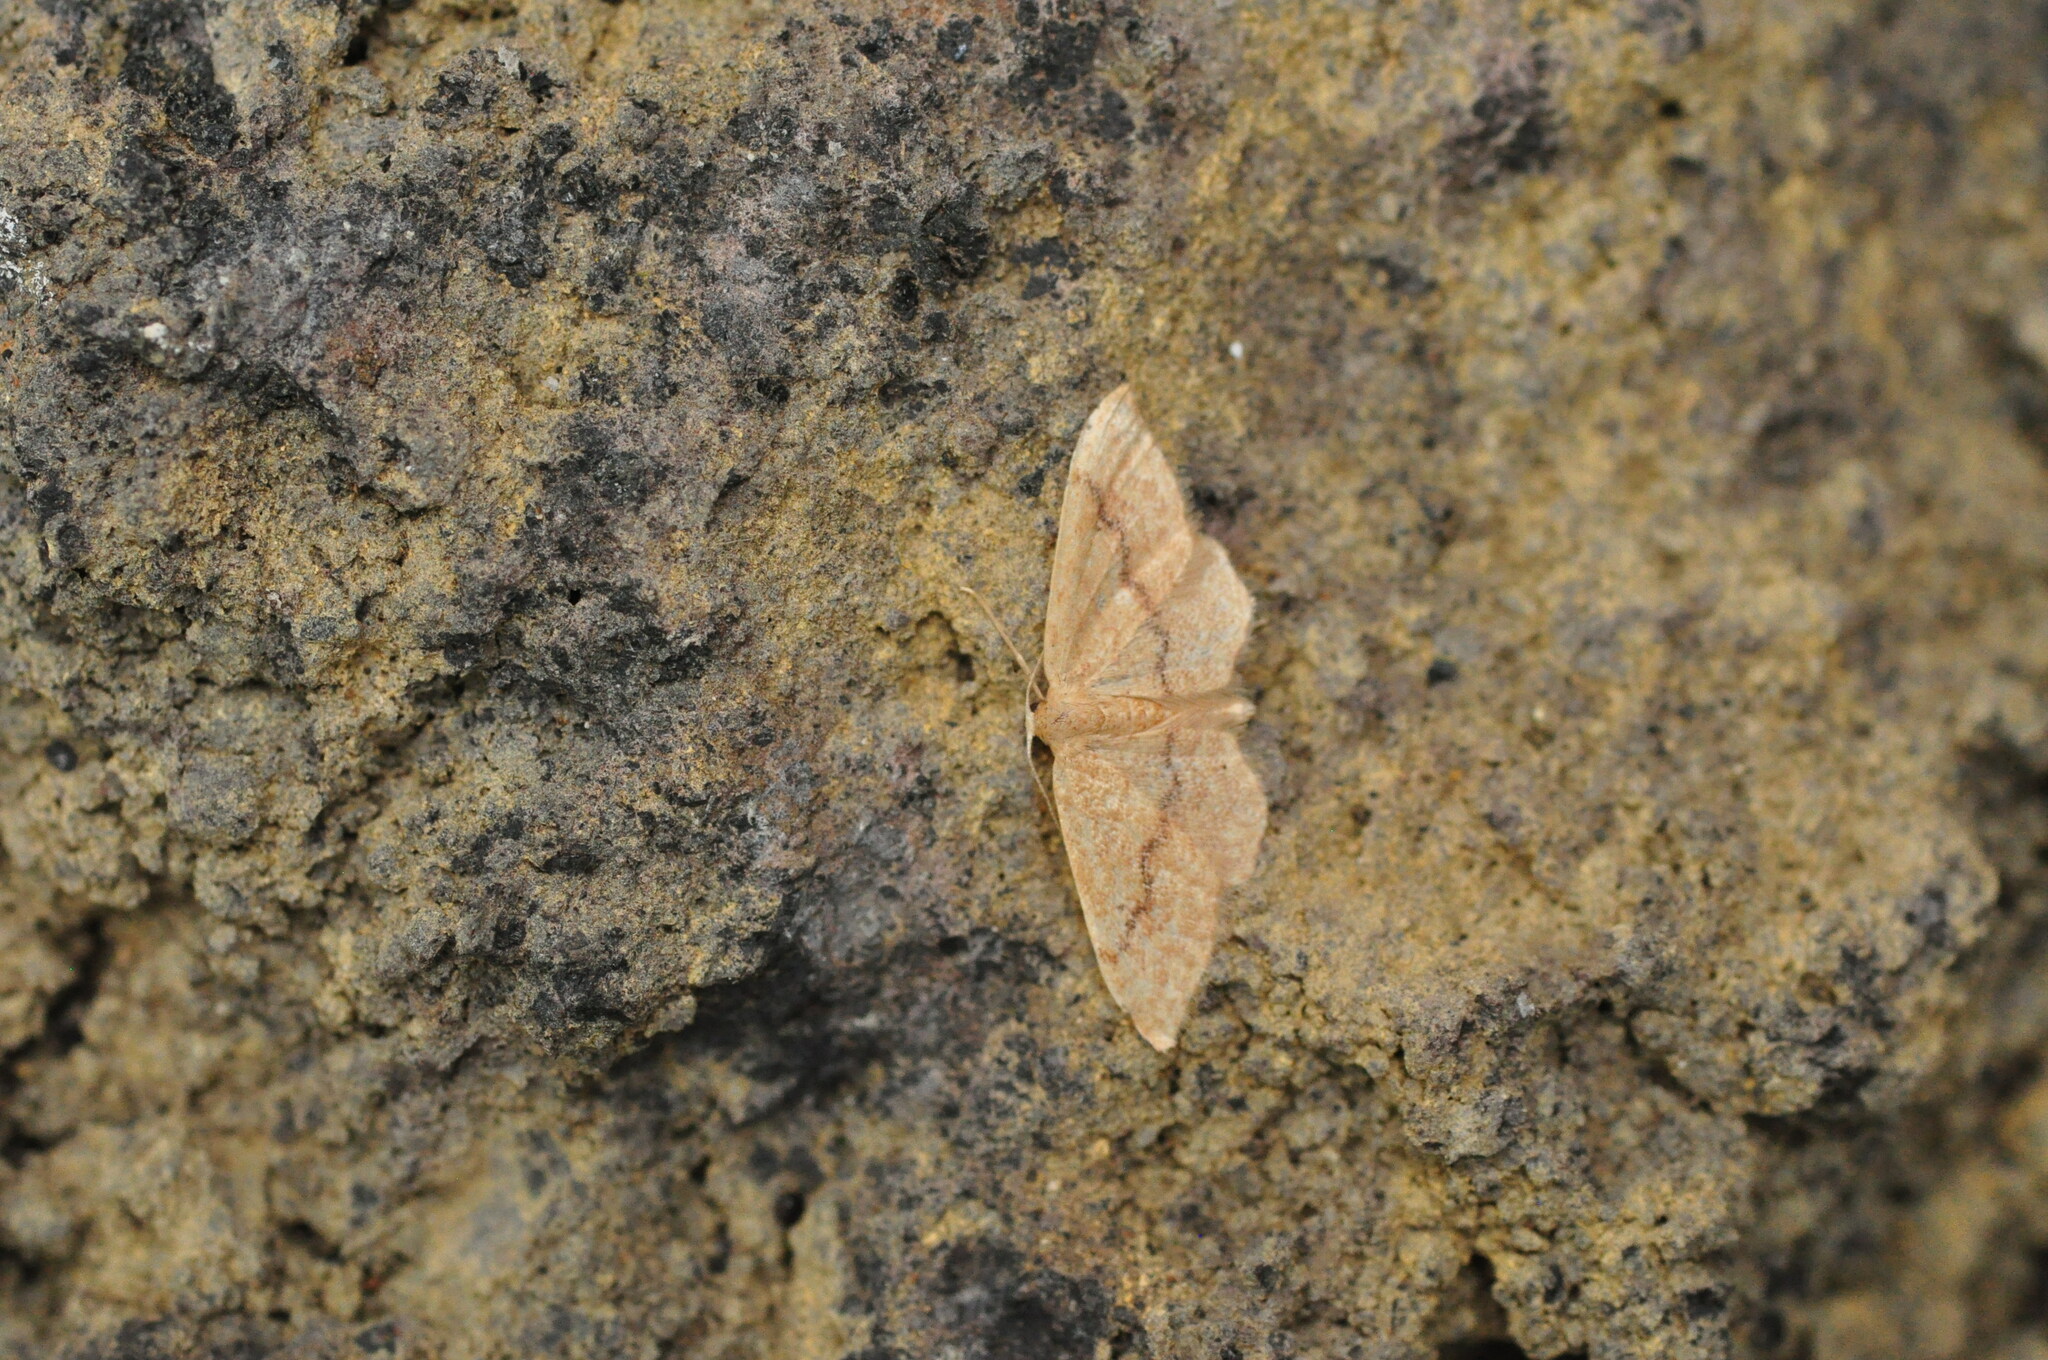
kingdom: Animalia
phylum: Arthropoda
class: Insecta
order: Lepidoptera
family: Geometridae
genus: Cyclophora
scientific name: Cyclophora maderensis
